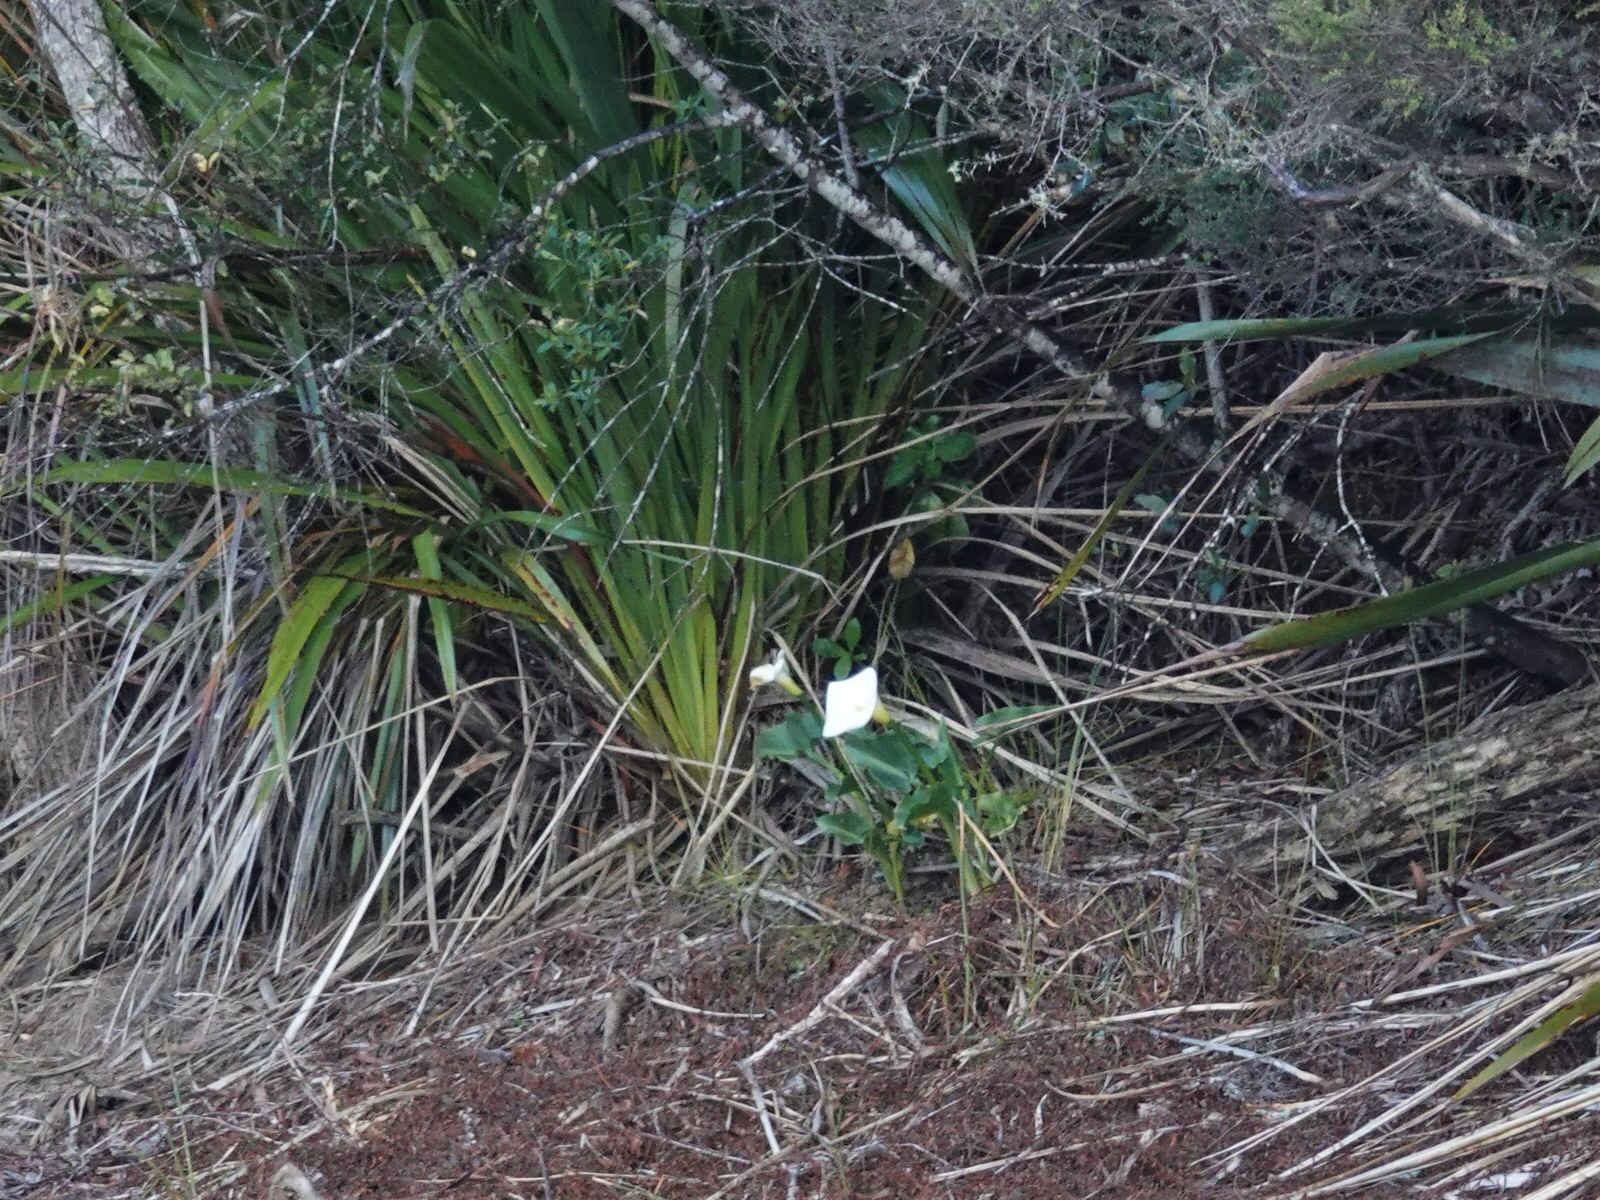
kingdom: Plantae
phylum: Tracheophyta
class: Liliopsida
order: Alismatales
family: Araceae
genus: Zantedeschia
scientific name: Zantedeschia aethiopica
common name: Altar-lily
